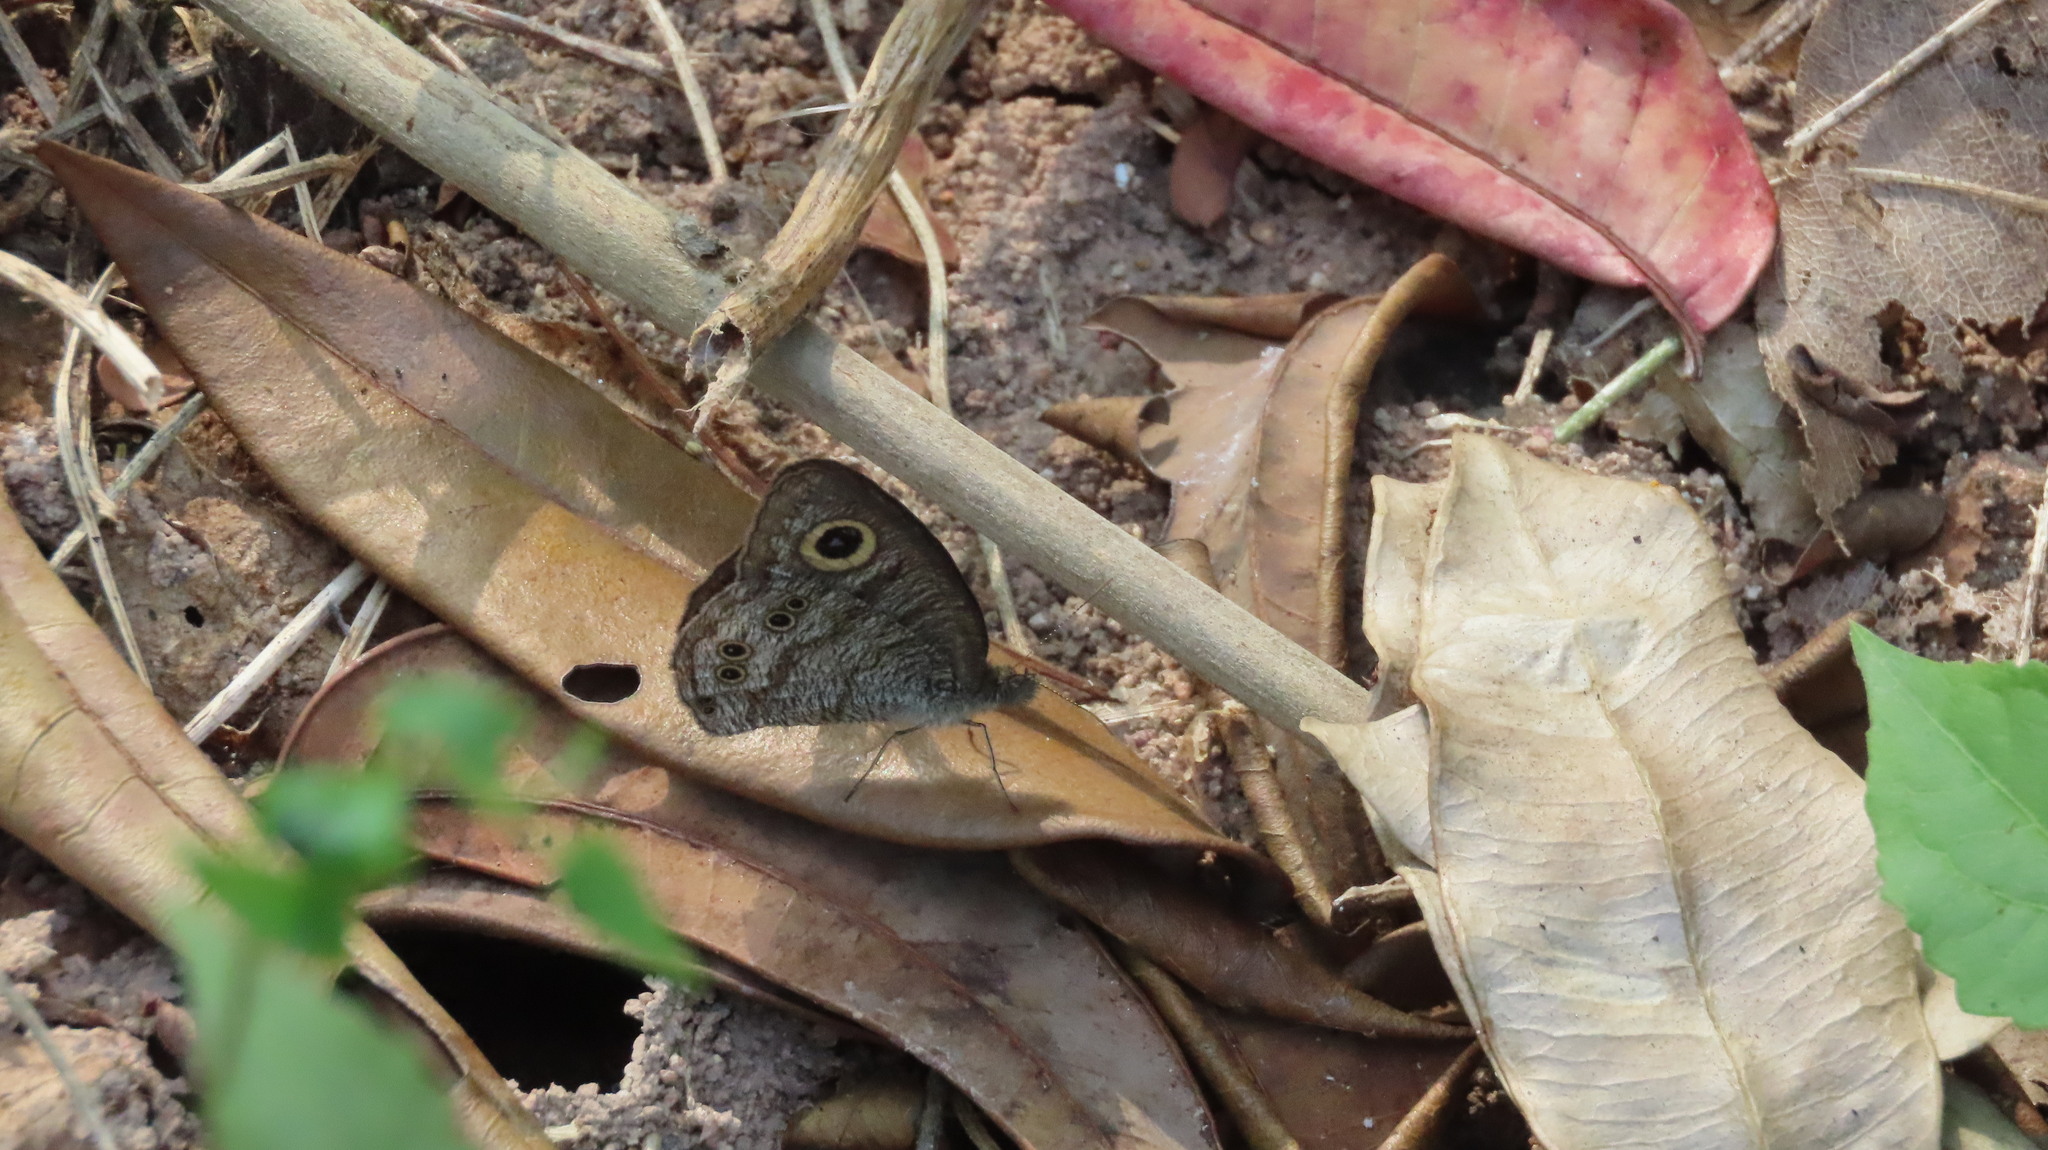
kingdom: Animalia
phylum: Arthropoda
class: Insecta
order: Lepidoptera
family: Nymphalidae
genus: Ypthima
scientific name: Ypthima baldus
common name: Common five-ring
